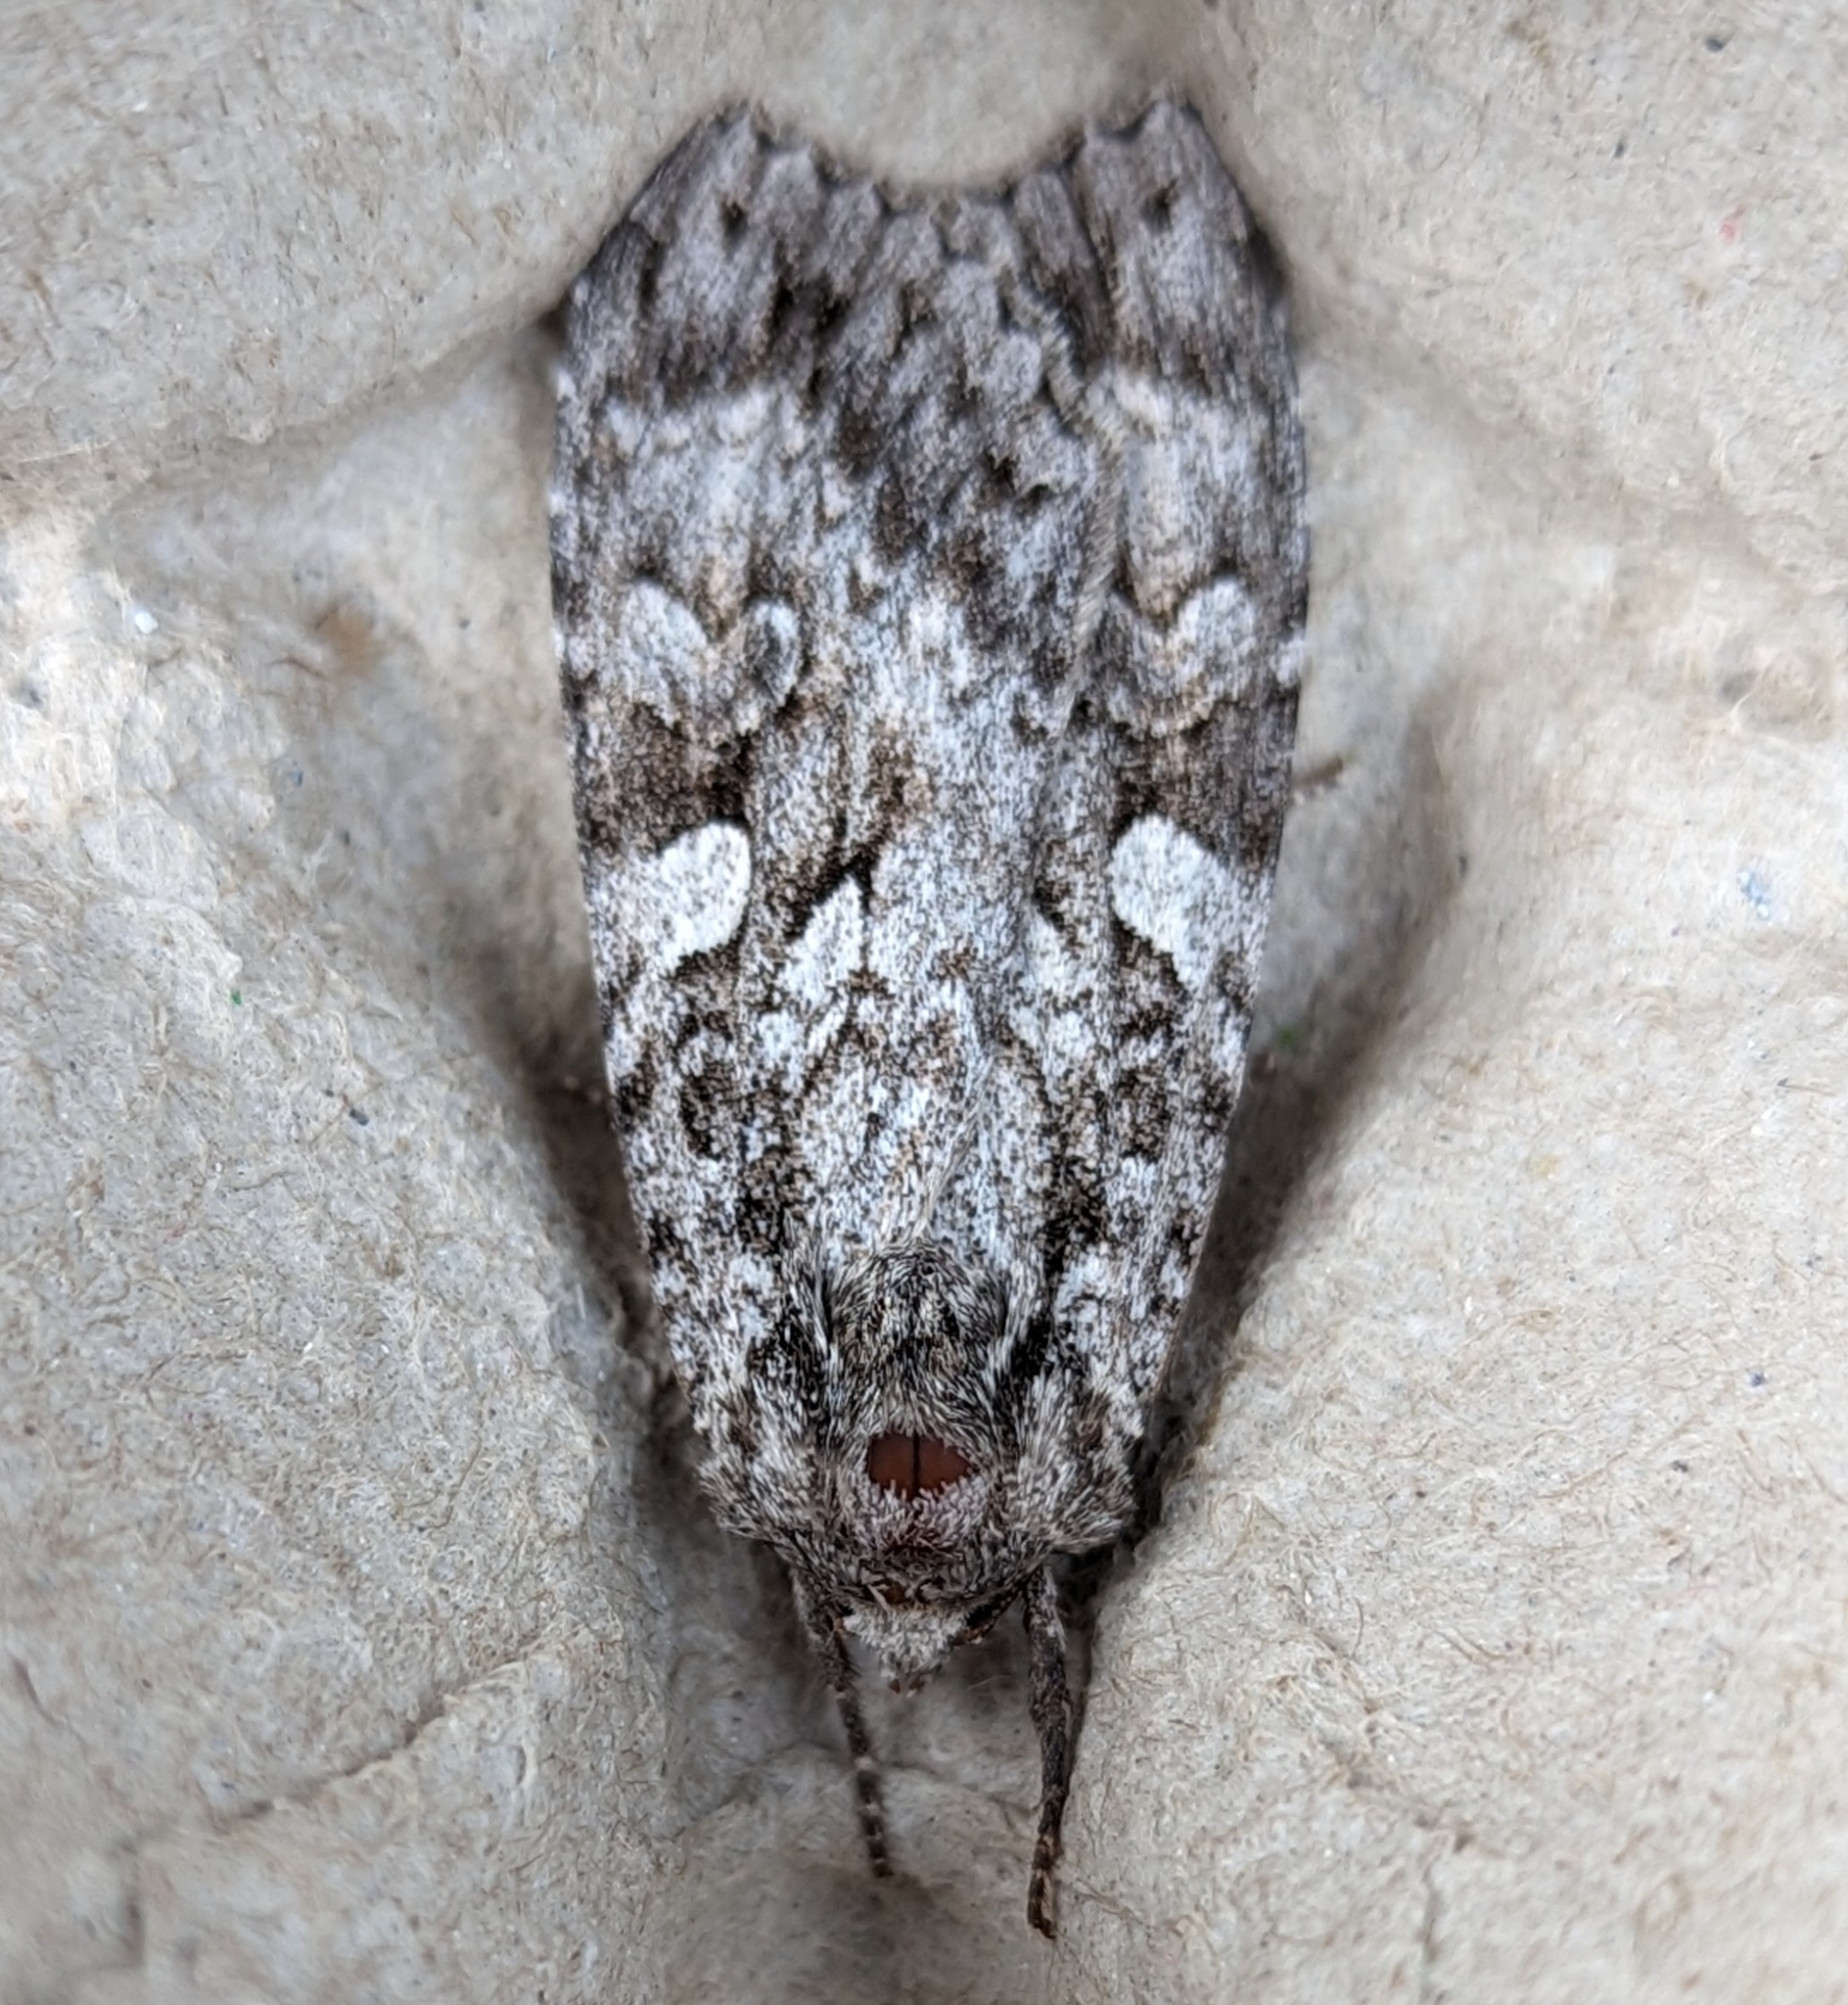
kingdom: Animalia
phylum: Arthropoda
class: Insecta
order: Lepidoptera
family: Noctuidae
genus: Eurois
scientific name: Eurois occulta
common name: Great brocade
